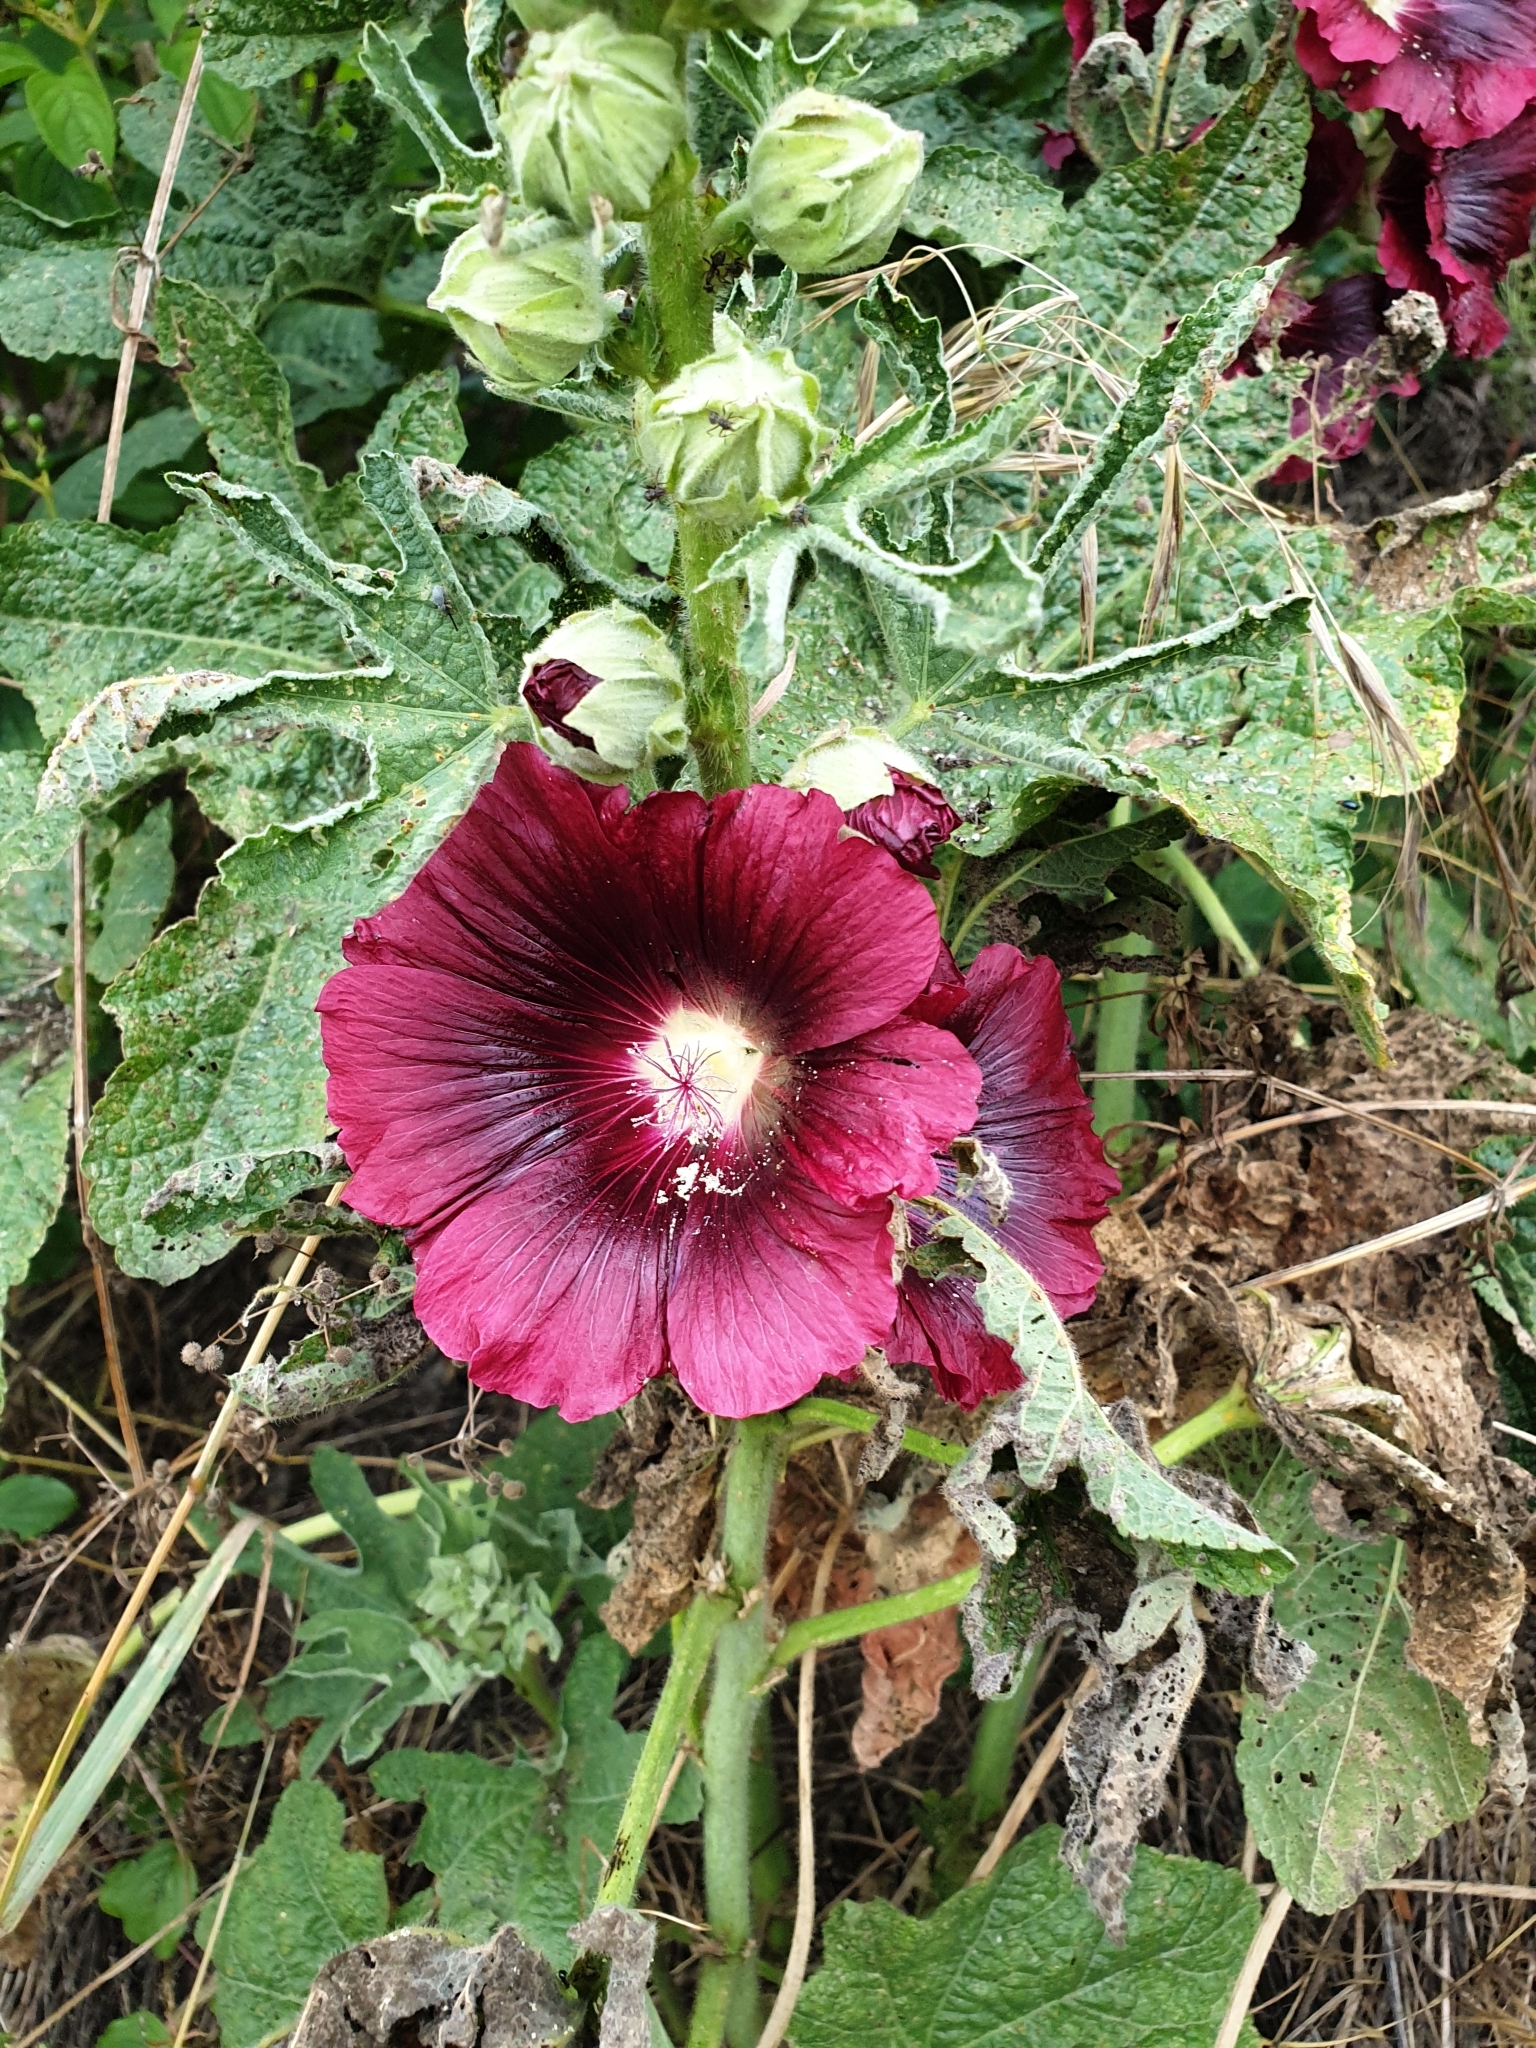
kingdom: Plantae
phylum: Tracheophyta
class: Magnoliopsida
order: Malvales
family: Malvaceae
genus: Alcea
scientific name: Alcea rosea
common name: Hollyhock
